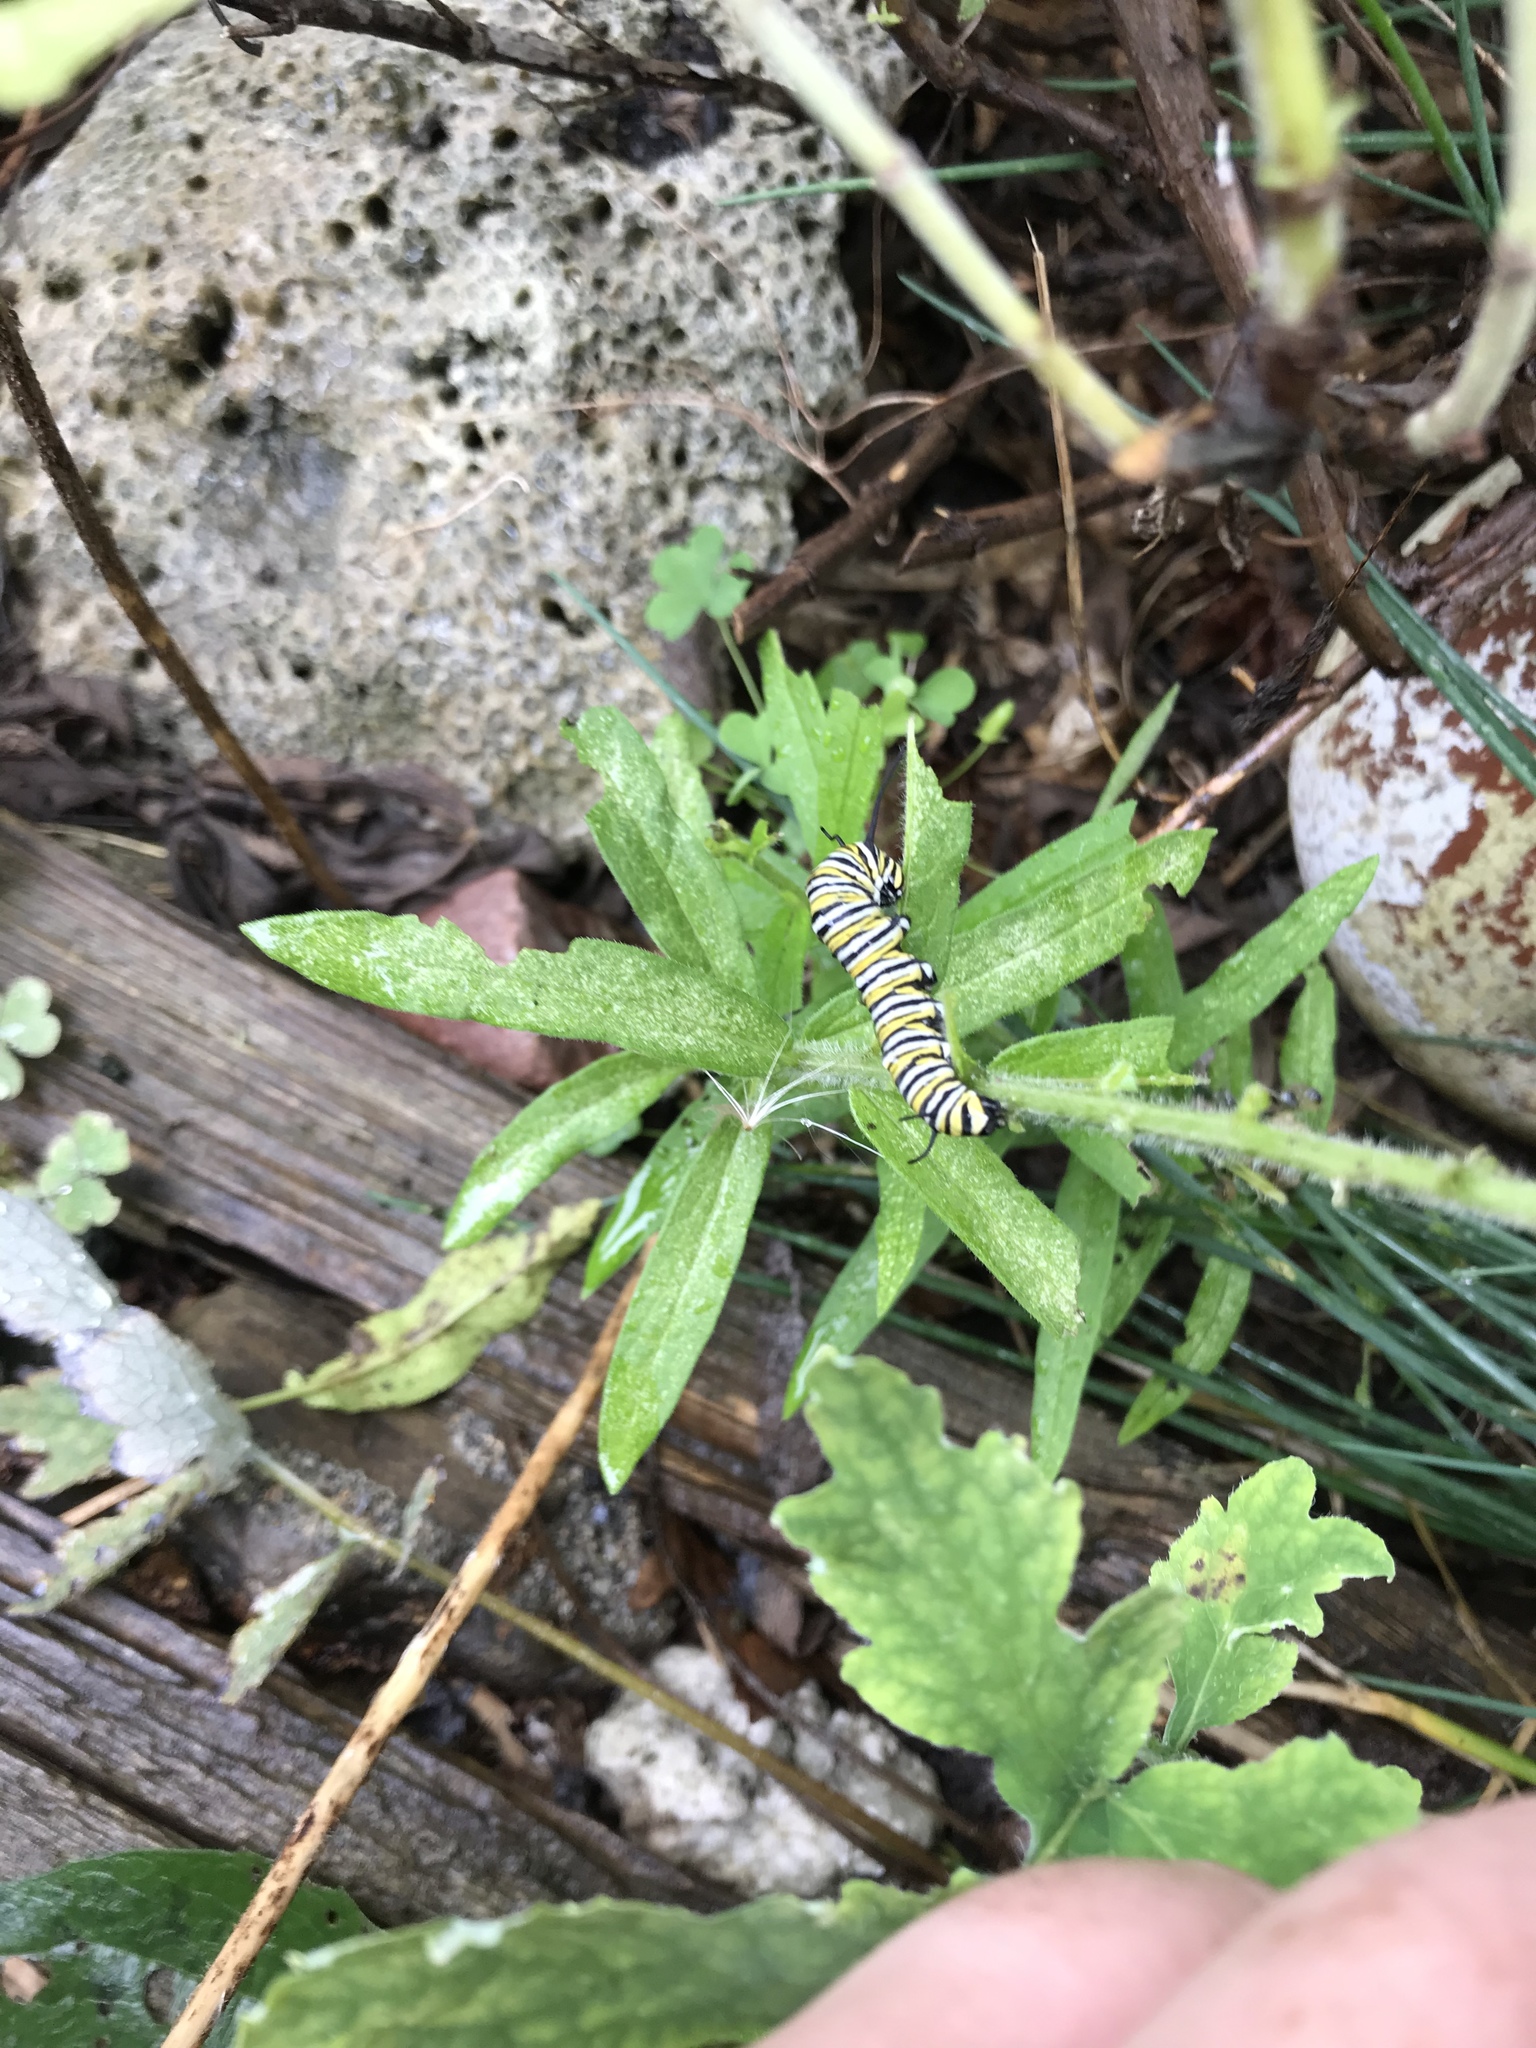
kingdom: Animalia
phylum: Arthropoda
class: Insecta
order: Lepidoptera
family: Nymphalidae
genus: Danaus
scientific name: Danaus plexippus
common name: Monarch
